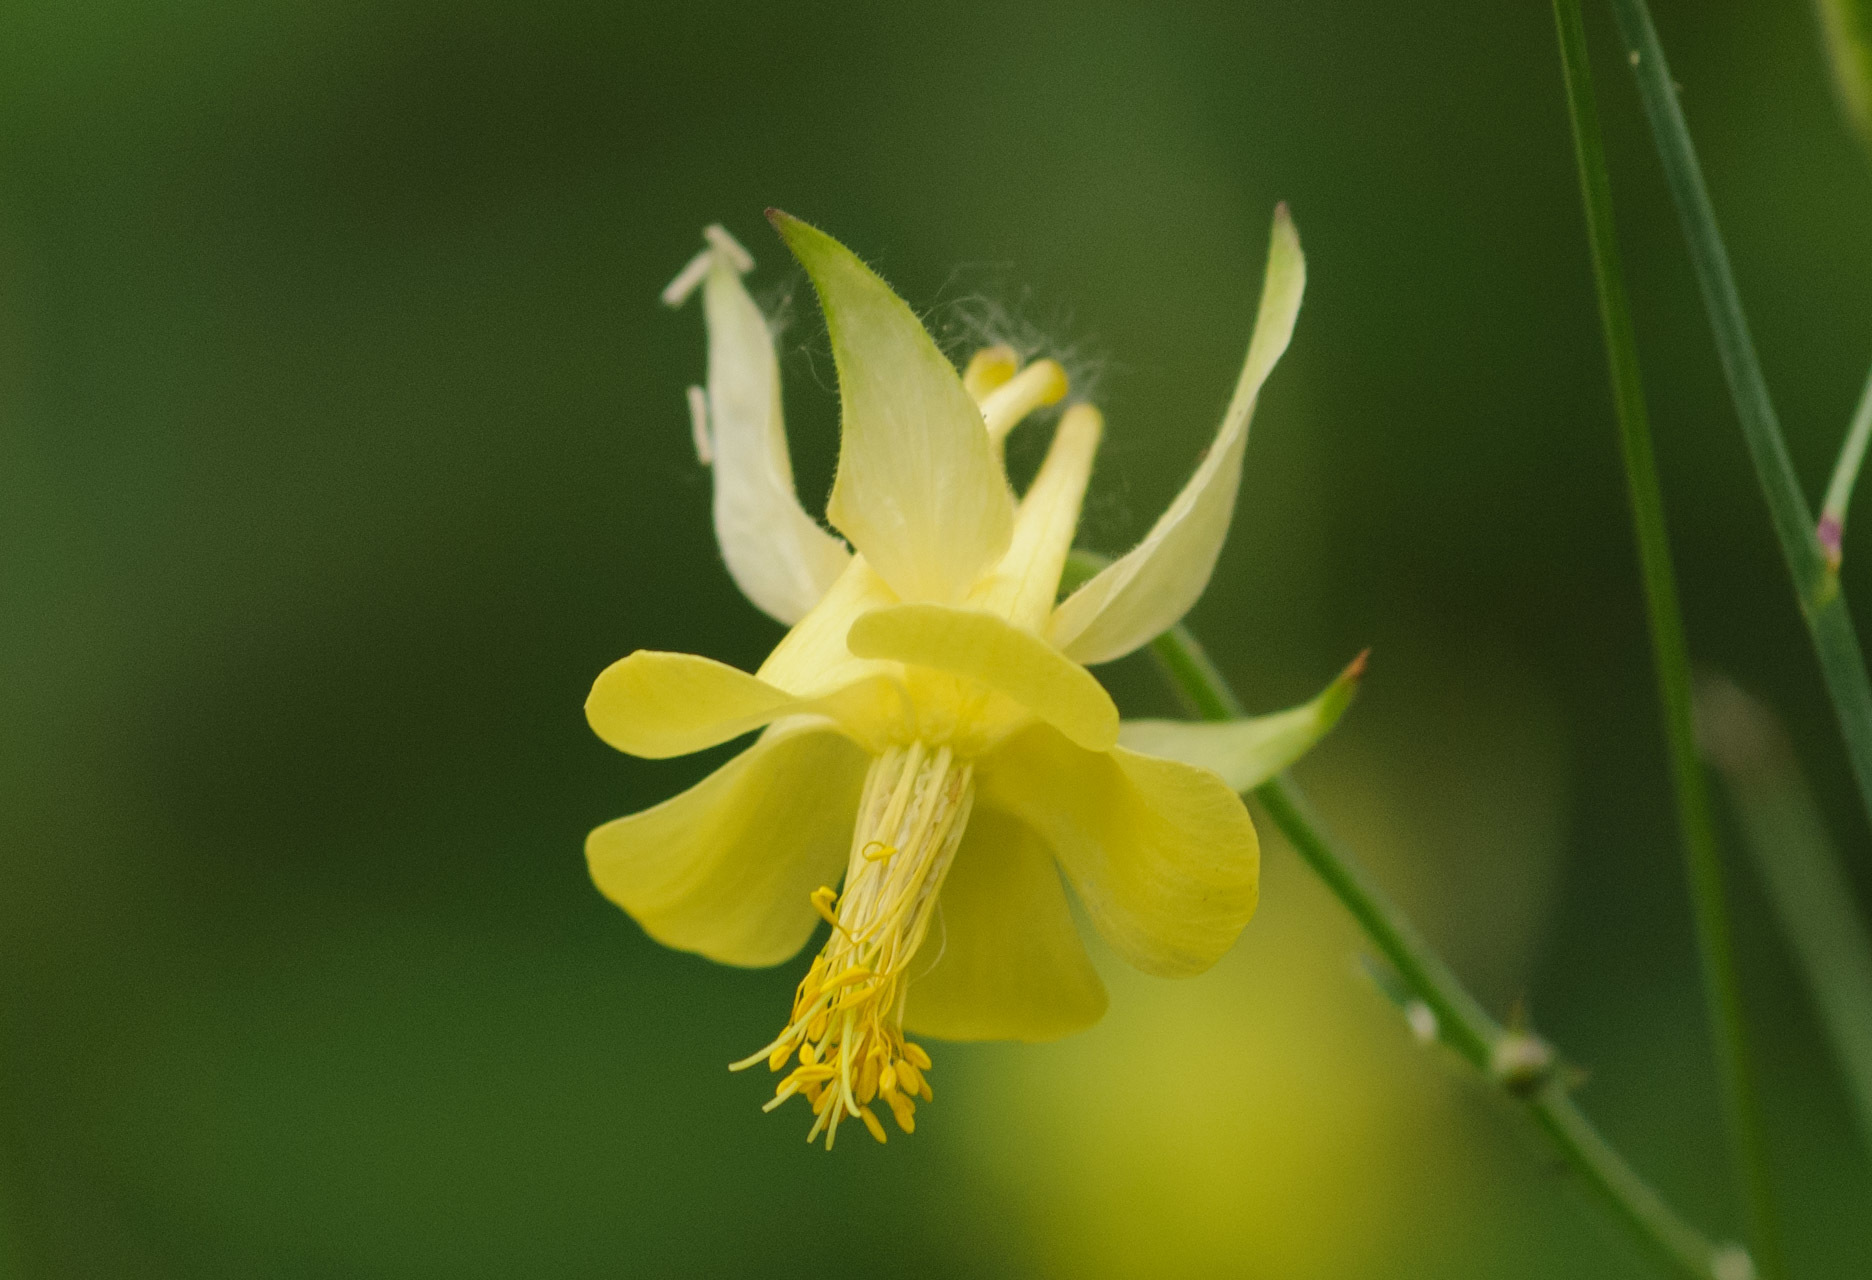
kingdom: Plantae
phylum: Tracheophyta
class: Magnoliopsida
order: Ranunculales
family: Ranunculaceae
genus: Aquilegia
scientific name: Aquilegia flavescens
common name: Yellow columbine
